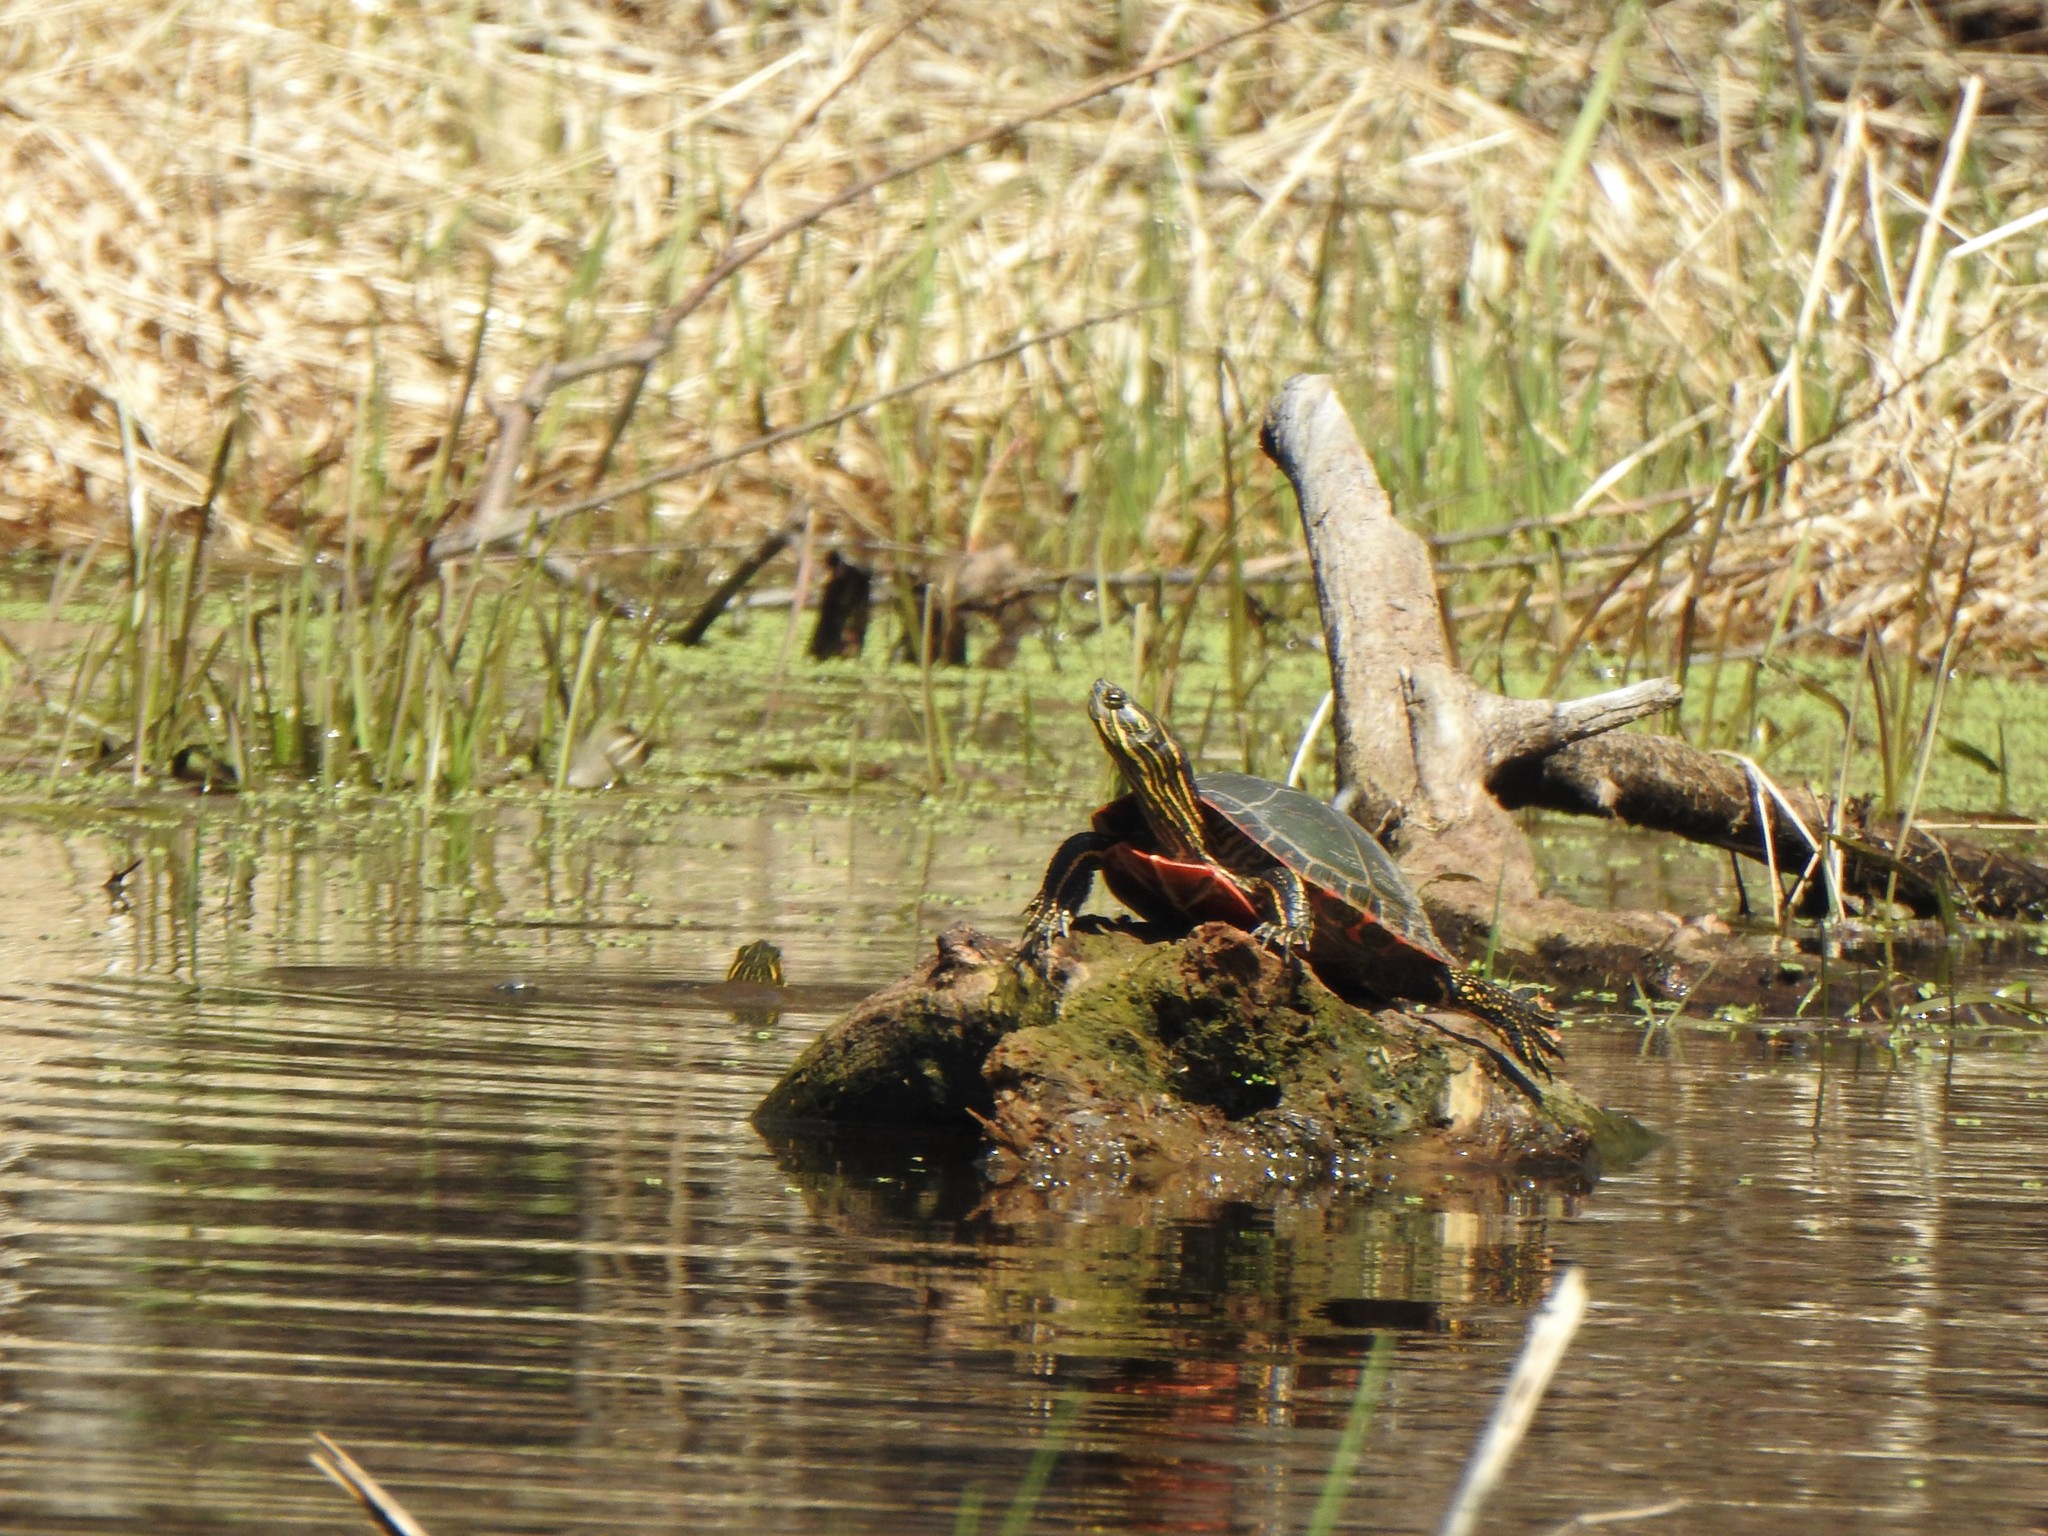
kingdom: Animalia
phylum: Chordata
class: Testudines
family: Emydidae
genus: Chrysemys
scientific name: Chrysemys picta
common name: Painted turtle
